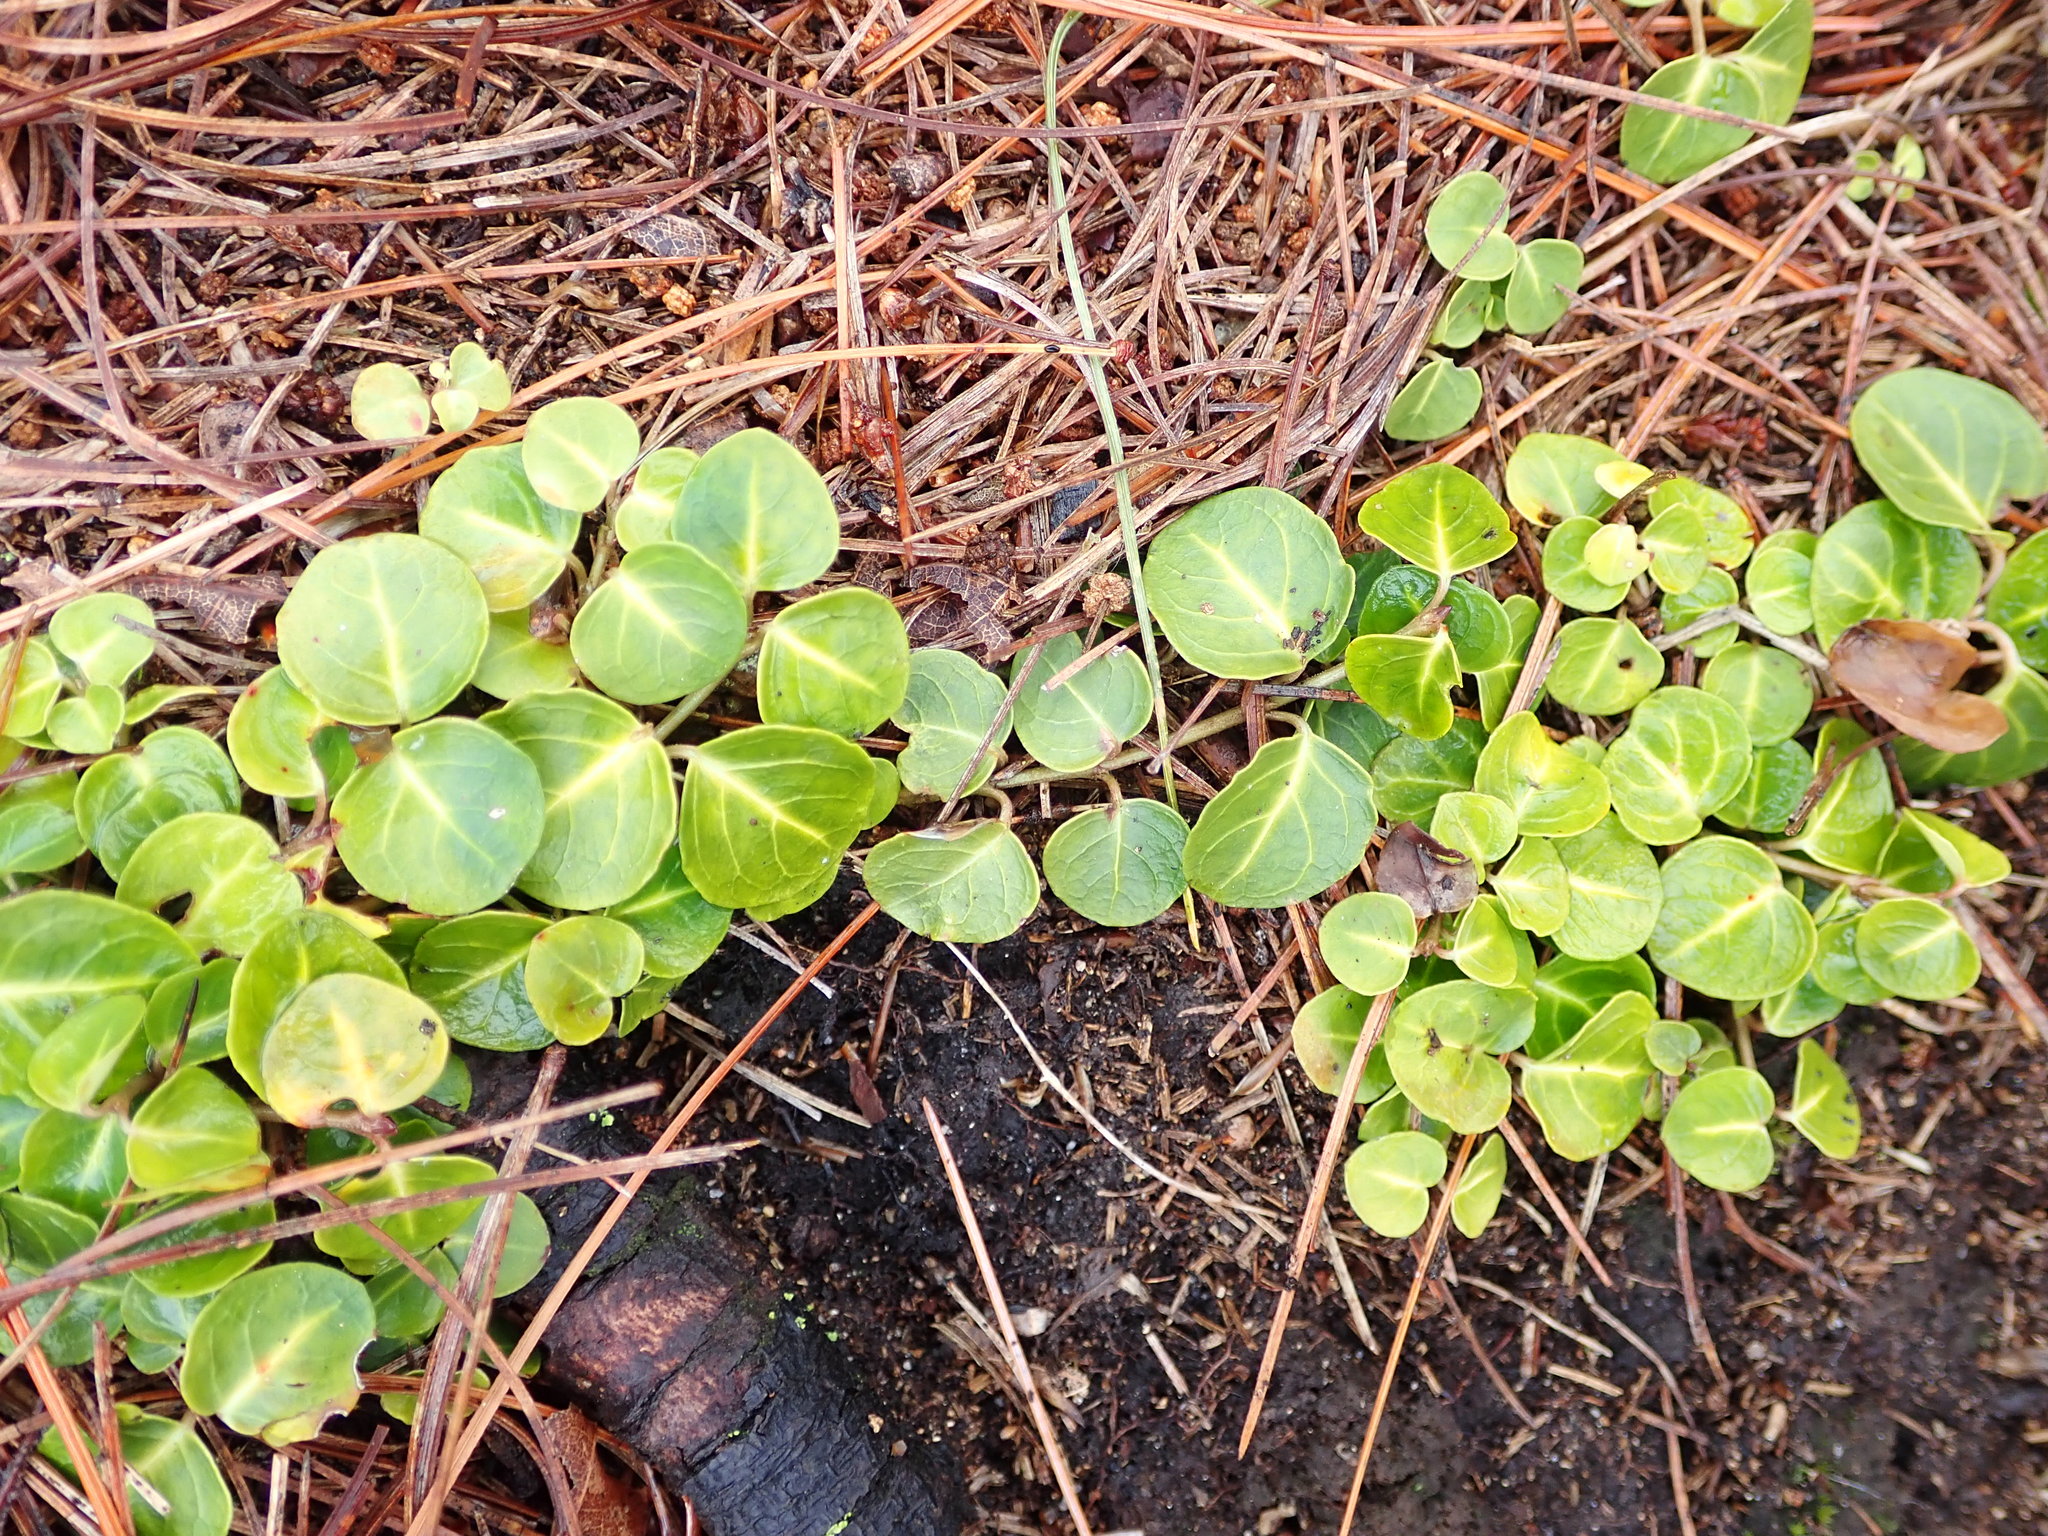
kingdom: Plantae
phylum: Tracheophyta
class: Magnoliopsida
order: Gentianales
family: Rubiaceae
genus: Mitchella
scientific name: Mitchella repens
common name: Partridge-berry
